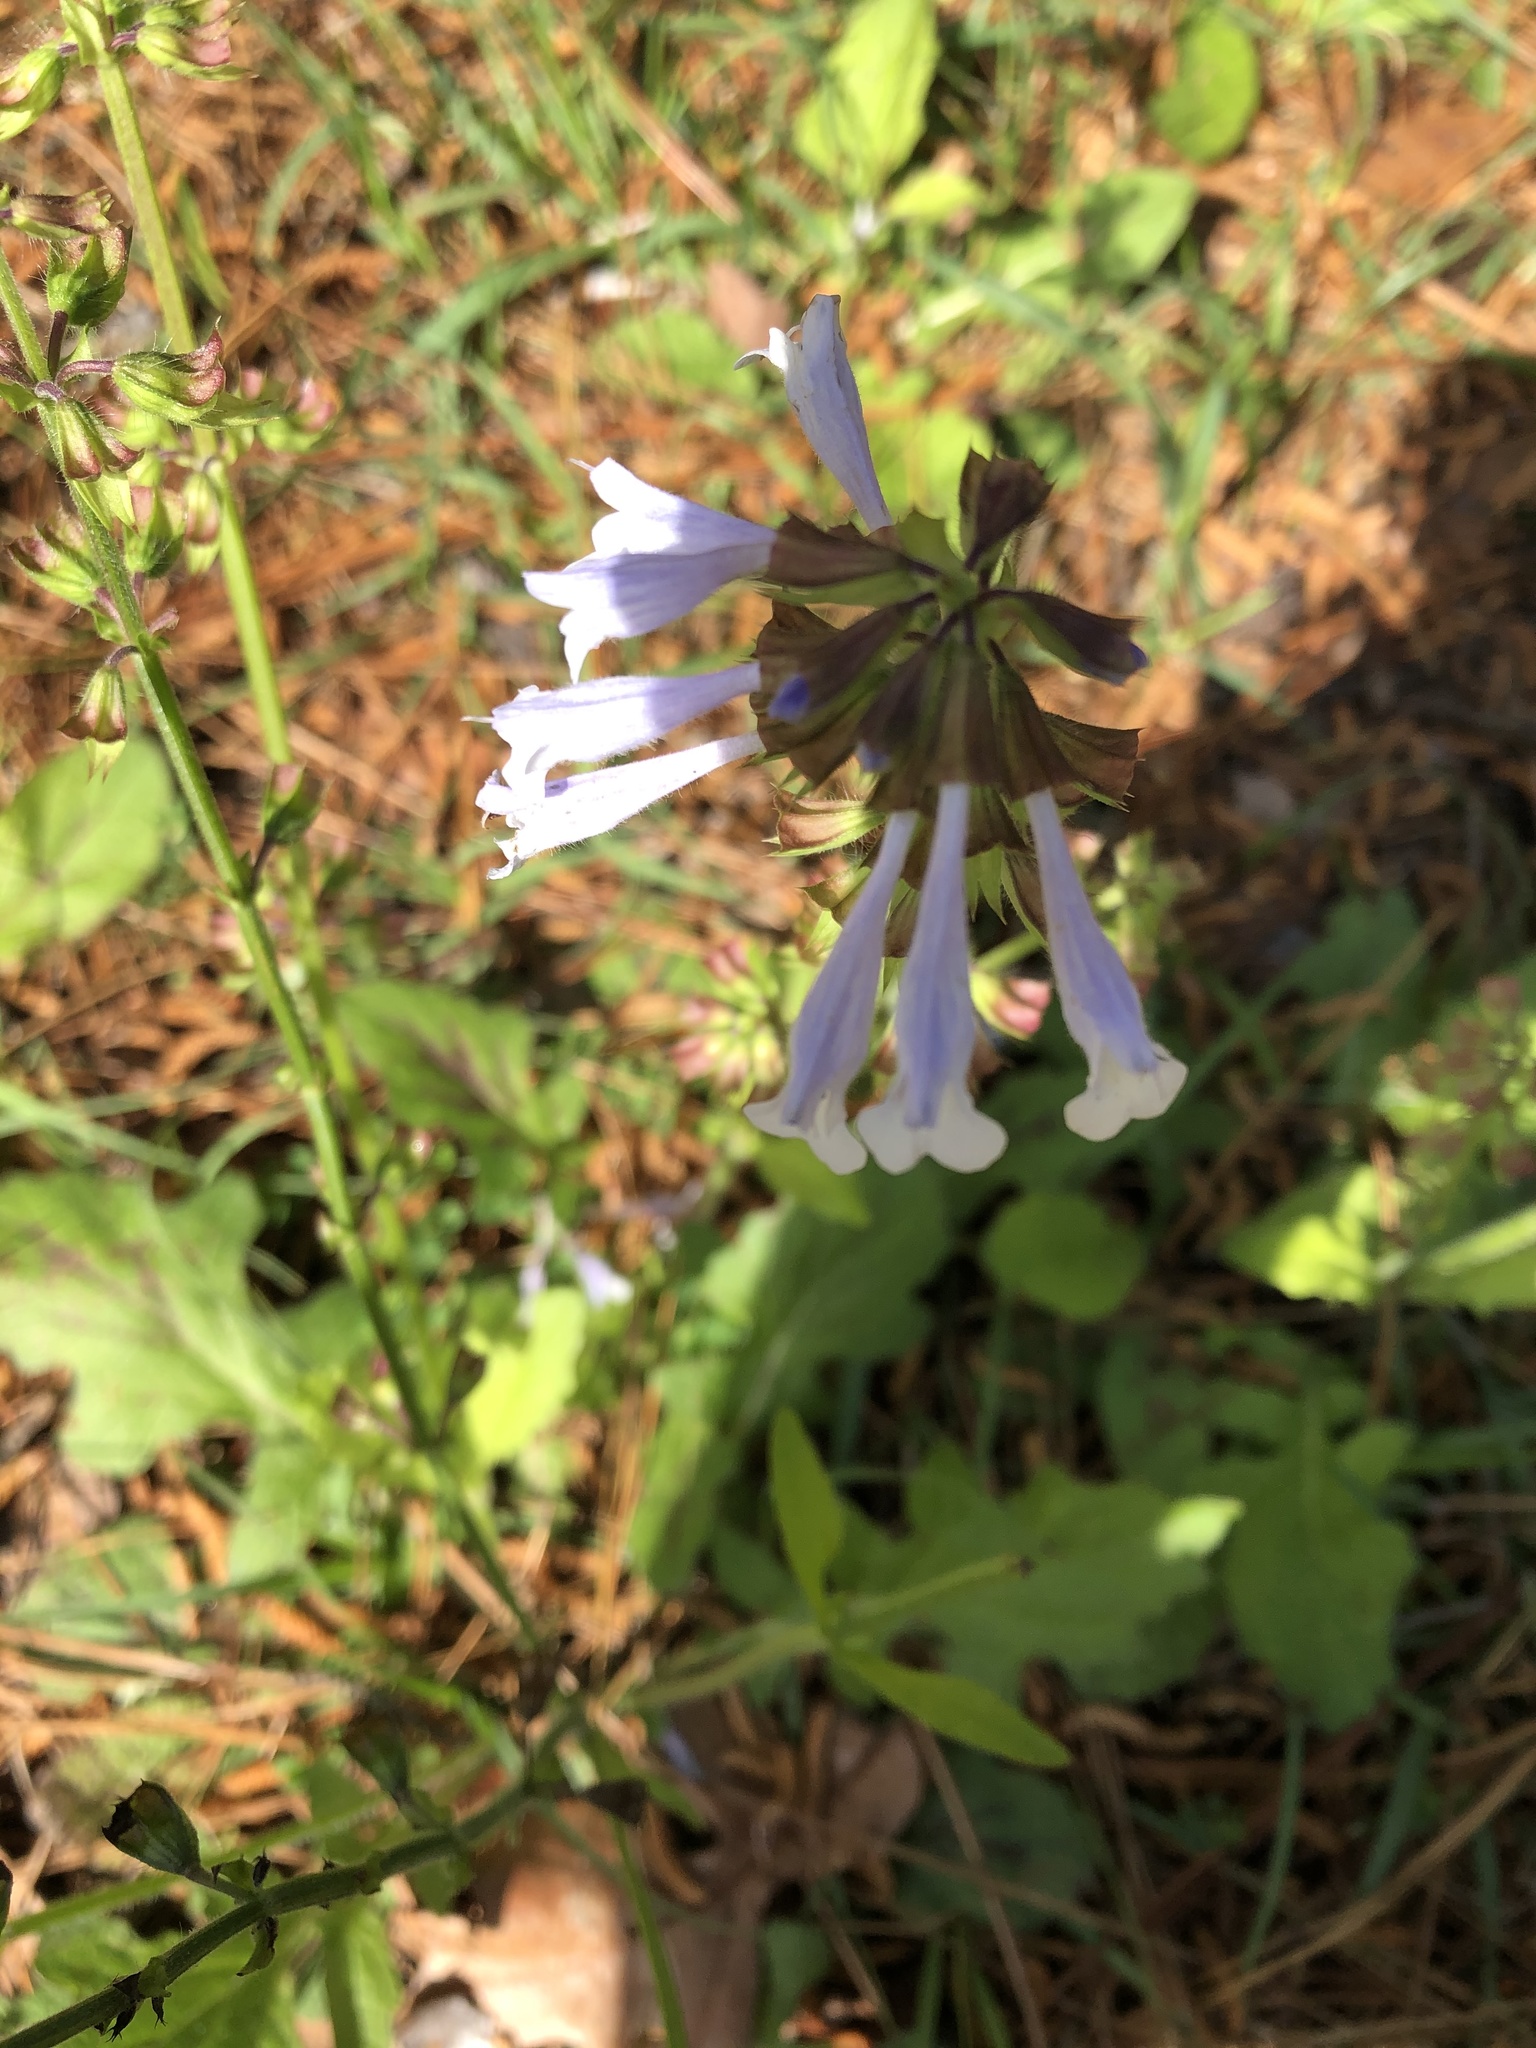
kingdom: Plantae
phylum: Tracheophyta
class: Magnoliopsida
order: Lamiales
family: Lamiaceae
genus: Salvia
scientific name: Salvia lyrata
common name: Cancerweed
